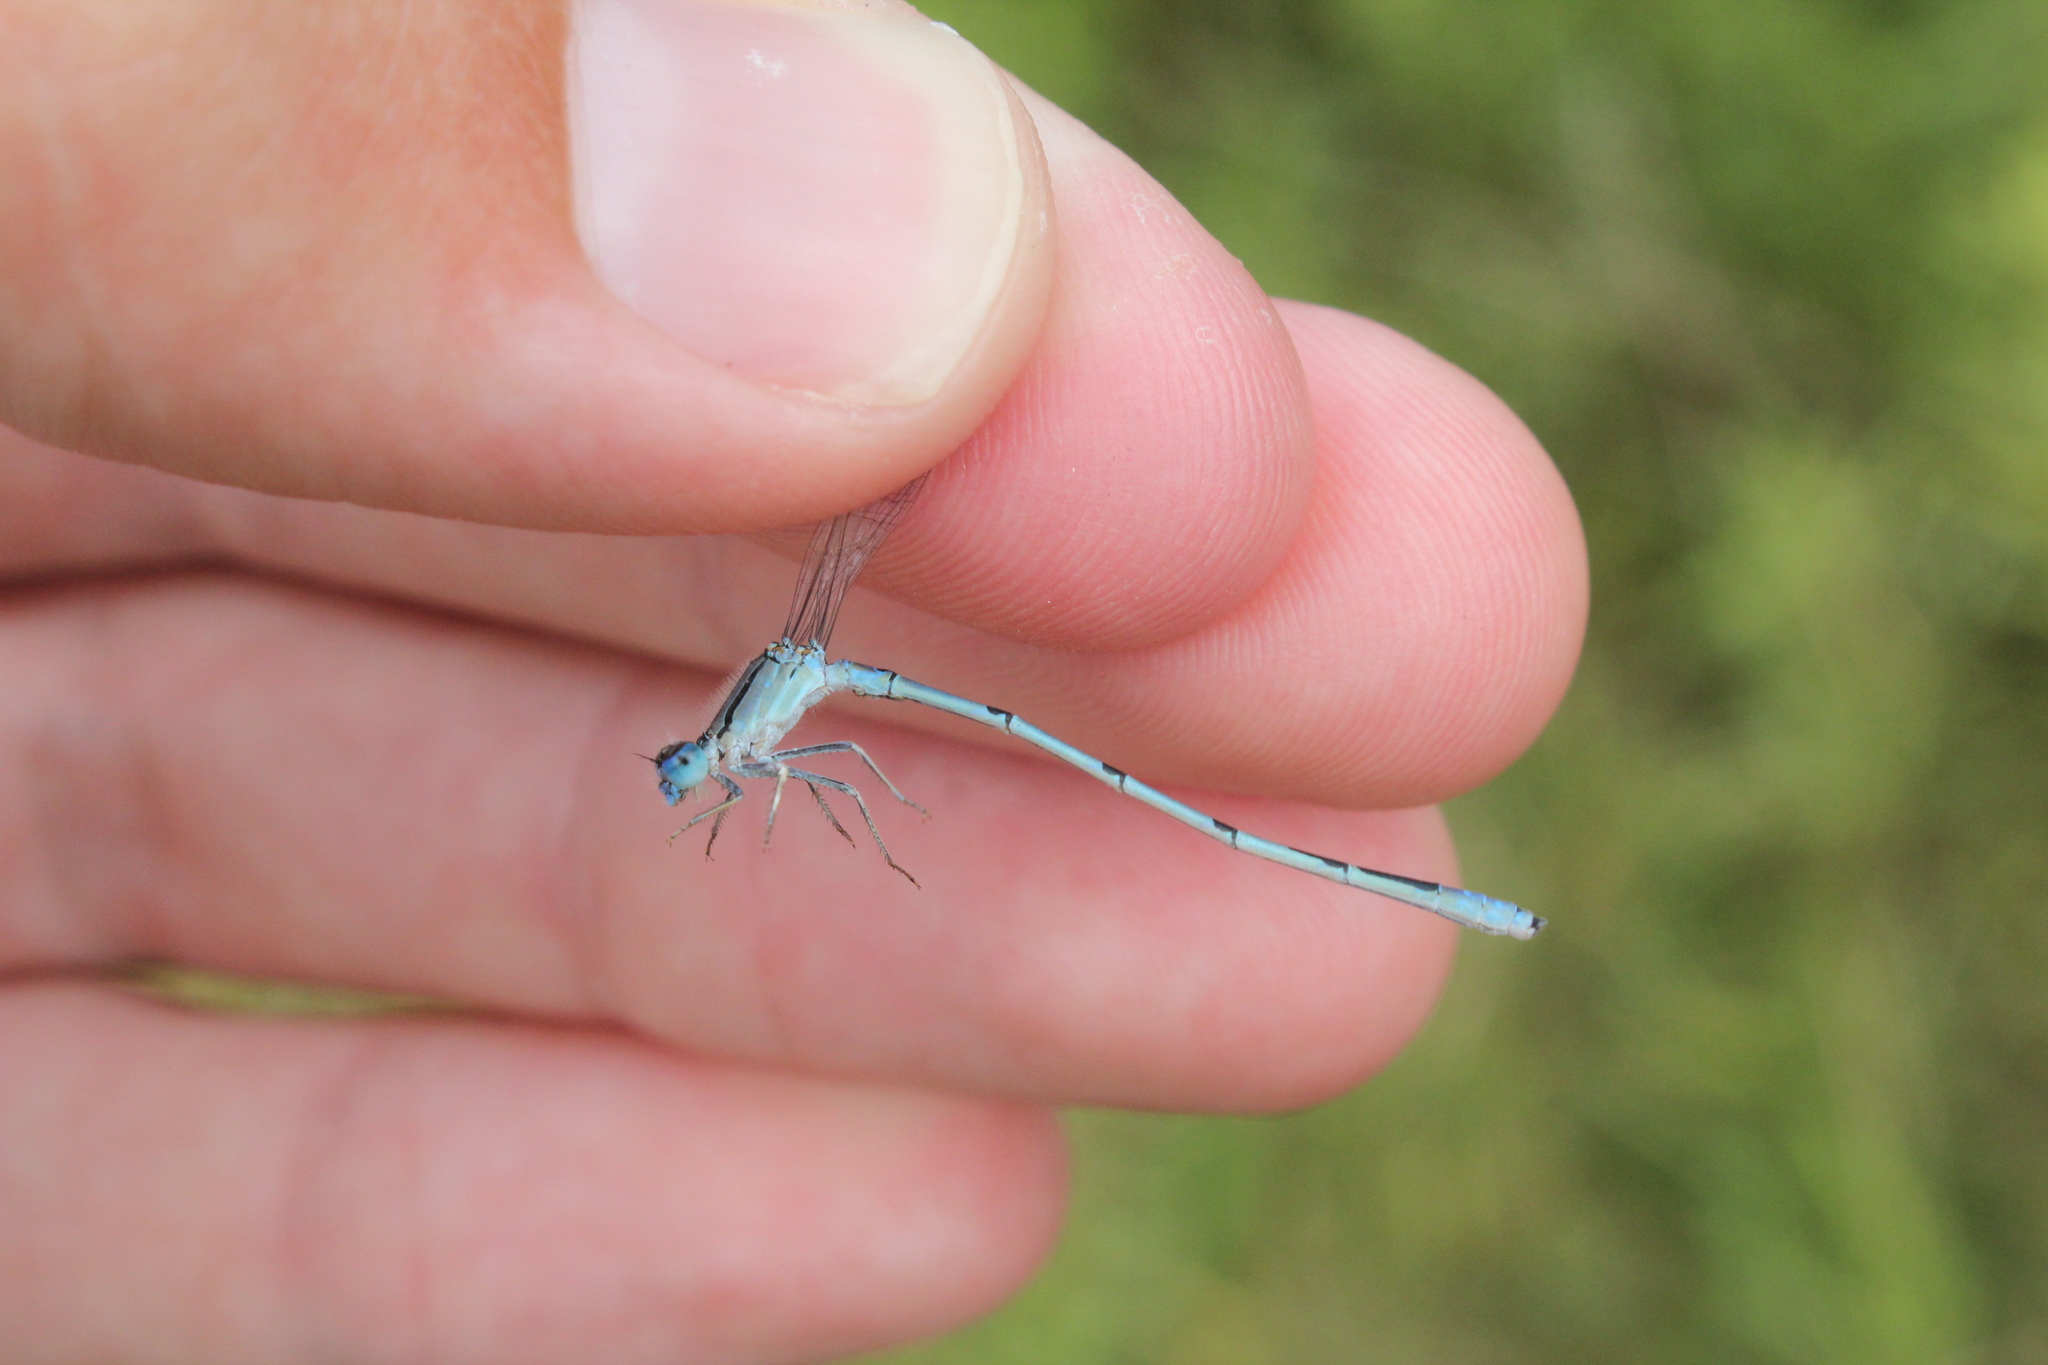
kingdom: Animalia
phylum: Arthropoda
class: Insecta
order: Odonata
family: Coenagrionidae
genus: Enallagma
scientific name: Enallagma civile
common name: Damselfly
